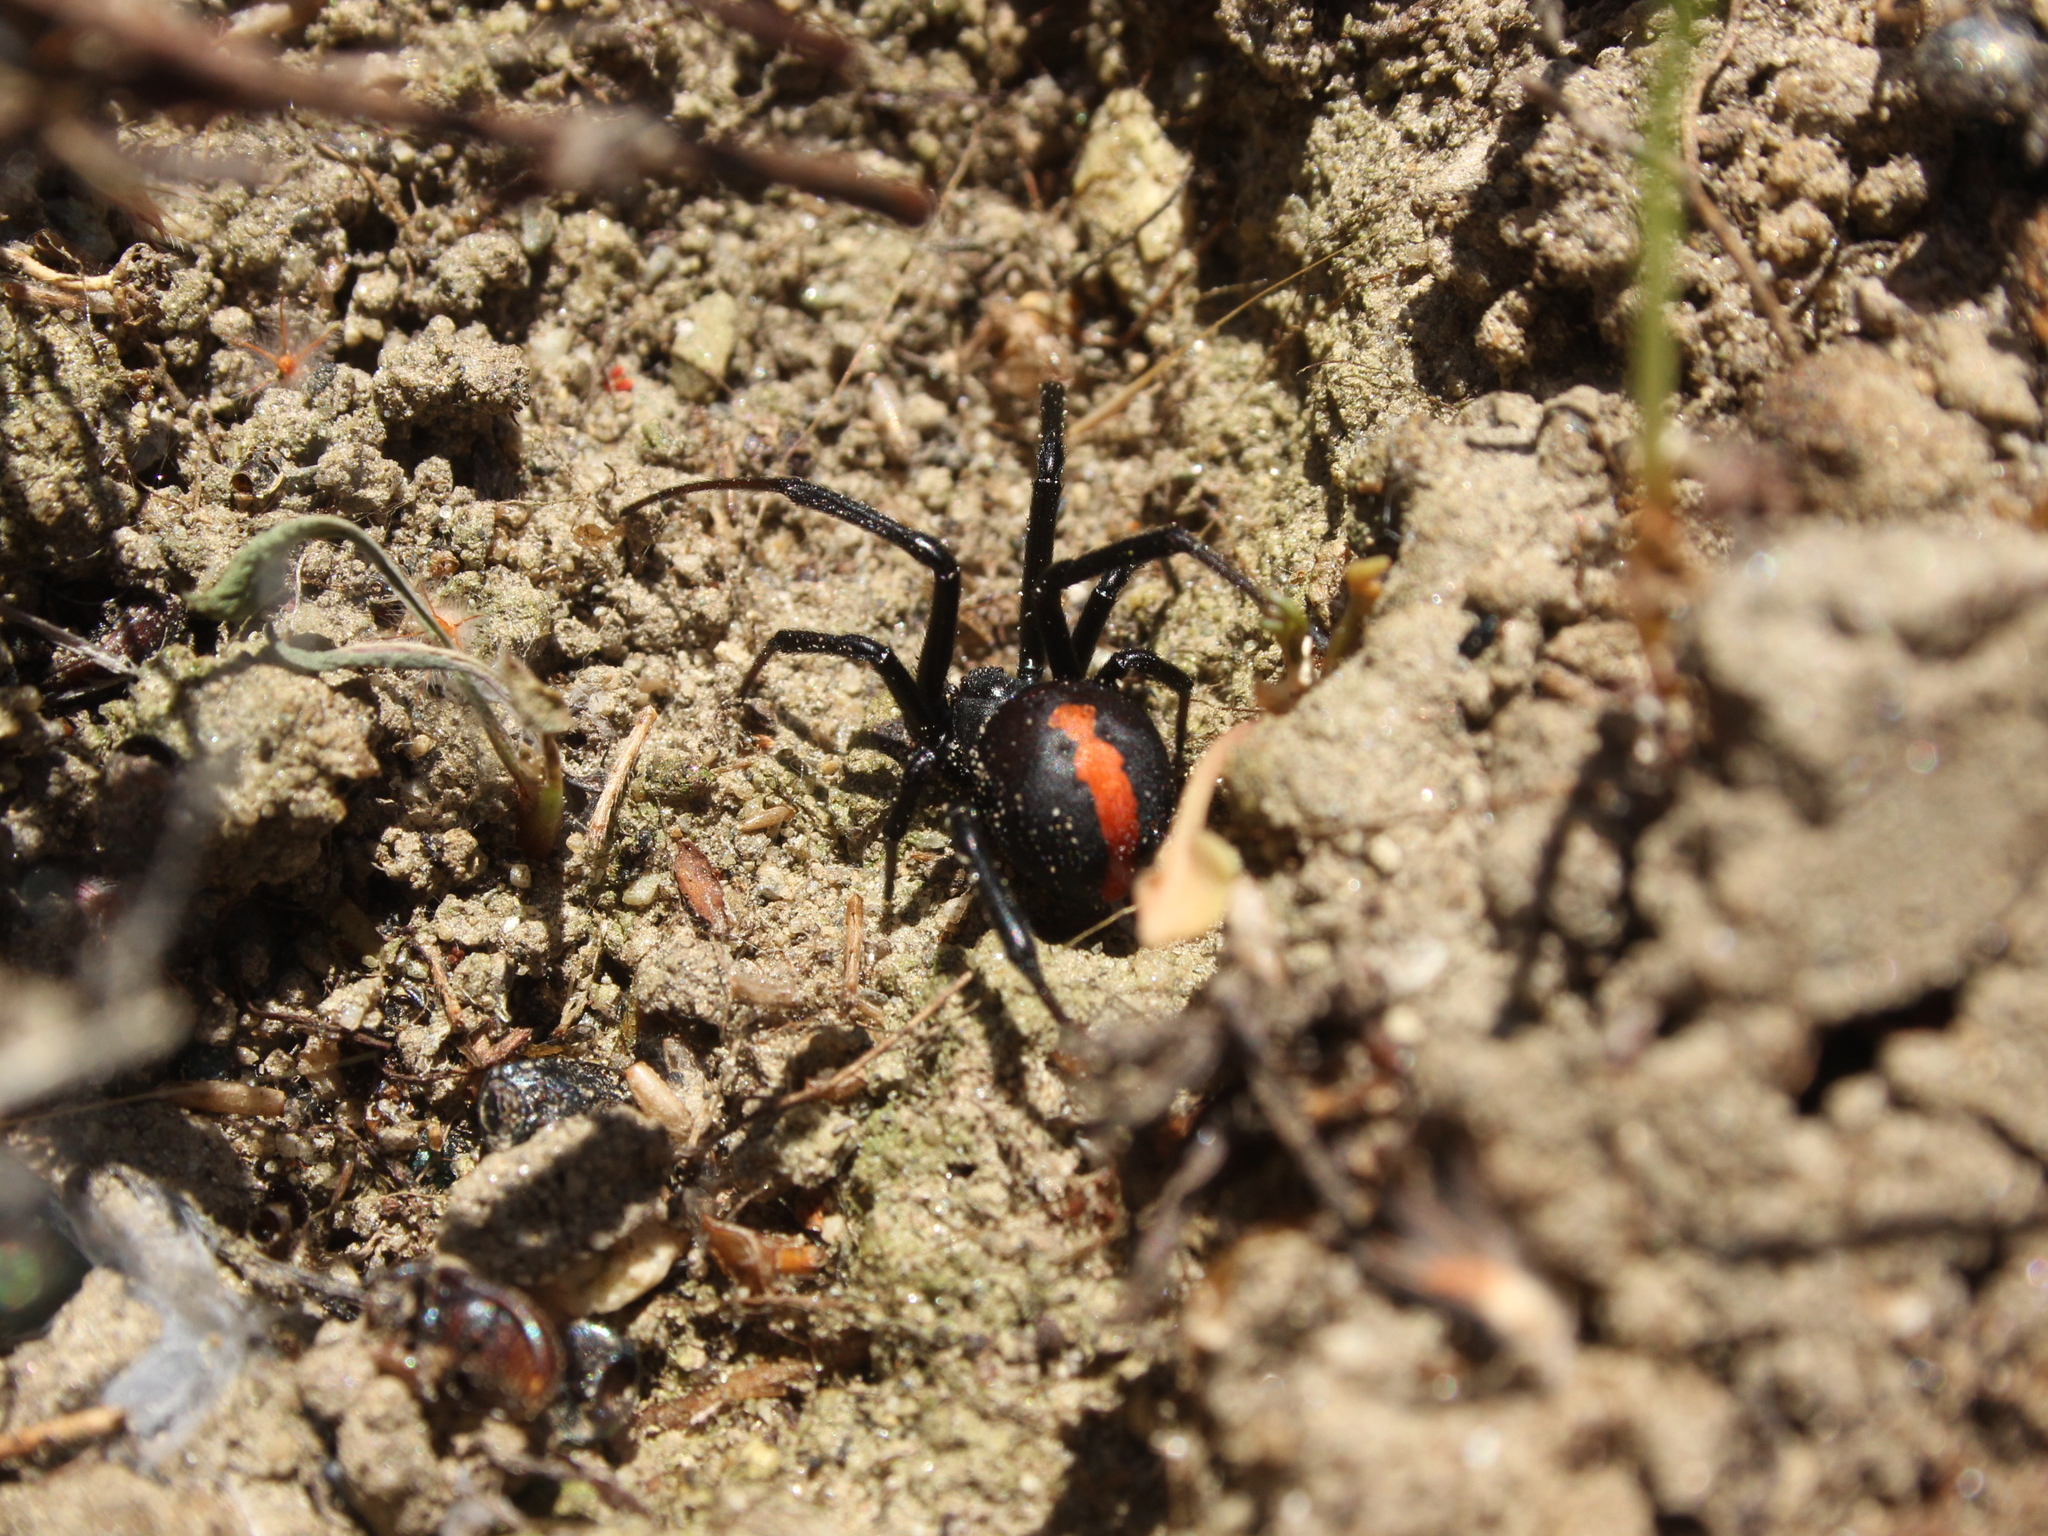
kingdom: Animalia
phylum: Arthropoda
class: Arachnida
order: Araneae
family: Theridiidae
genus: Latrodectus
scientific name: Latrodectus hasselti
